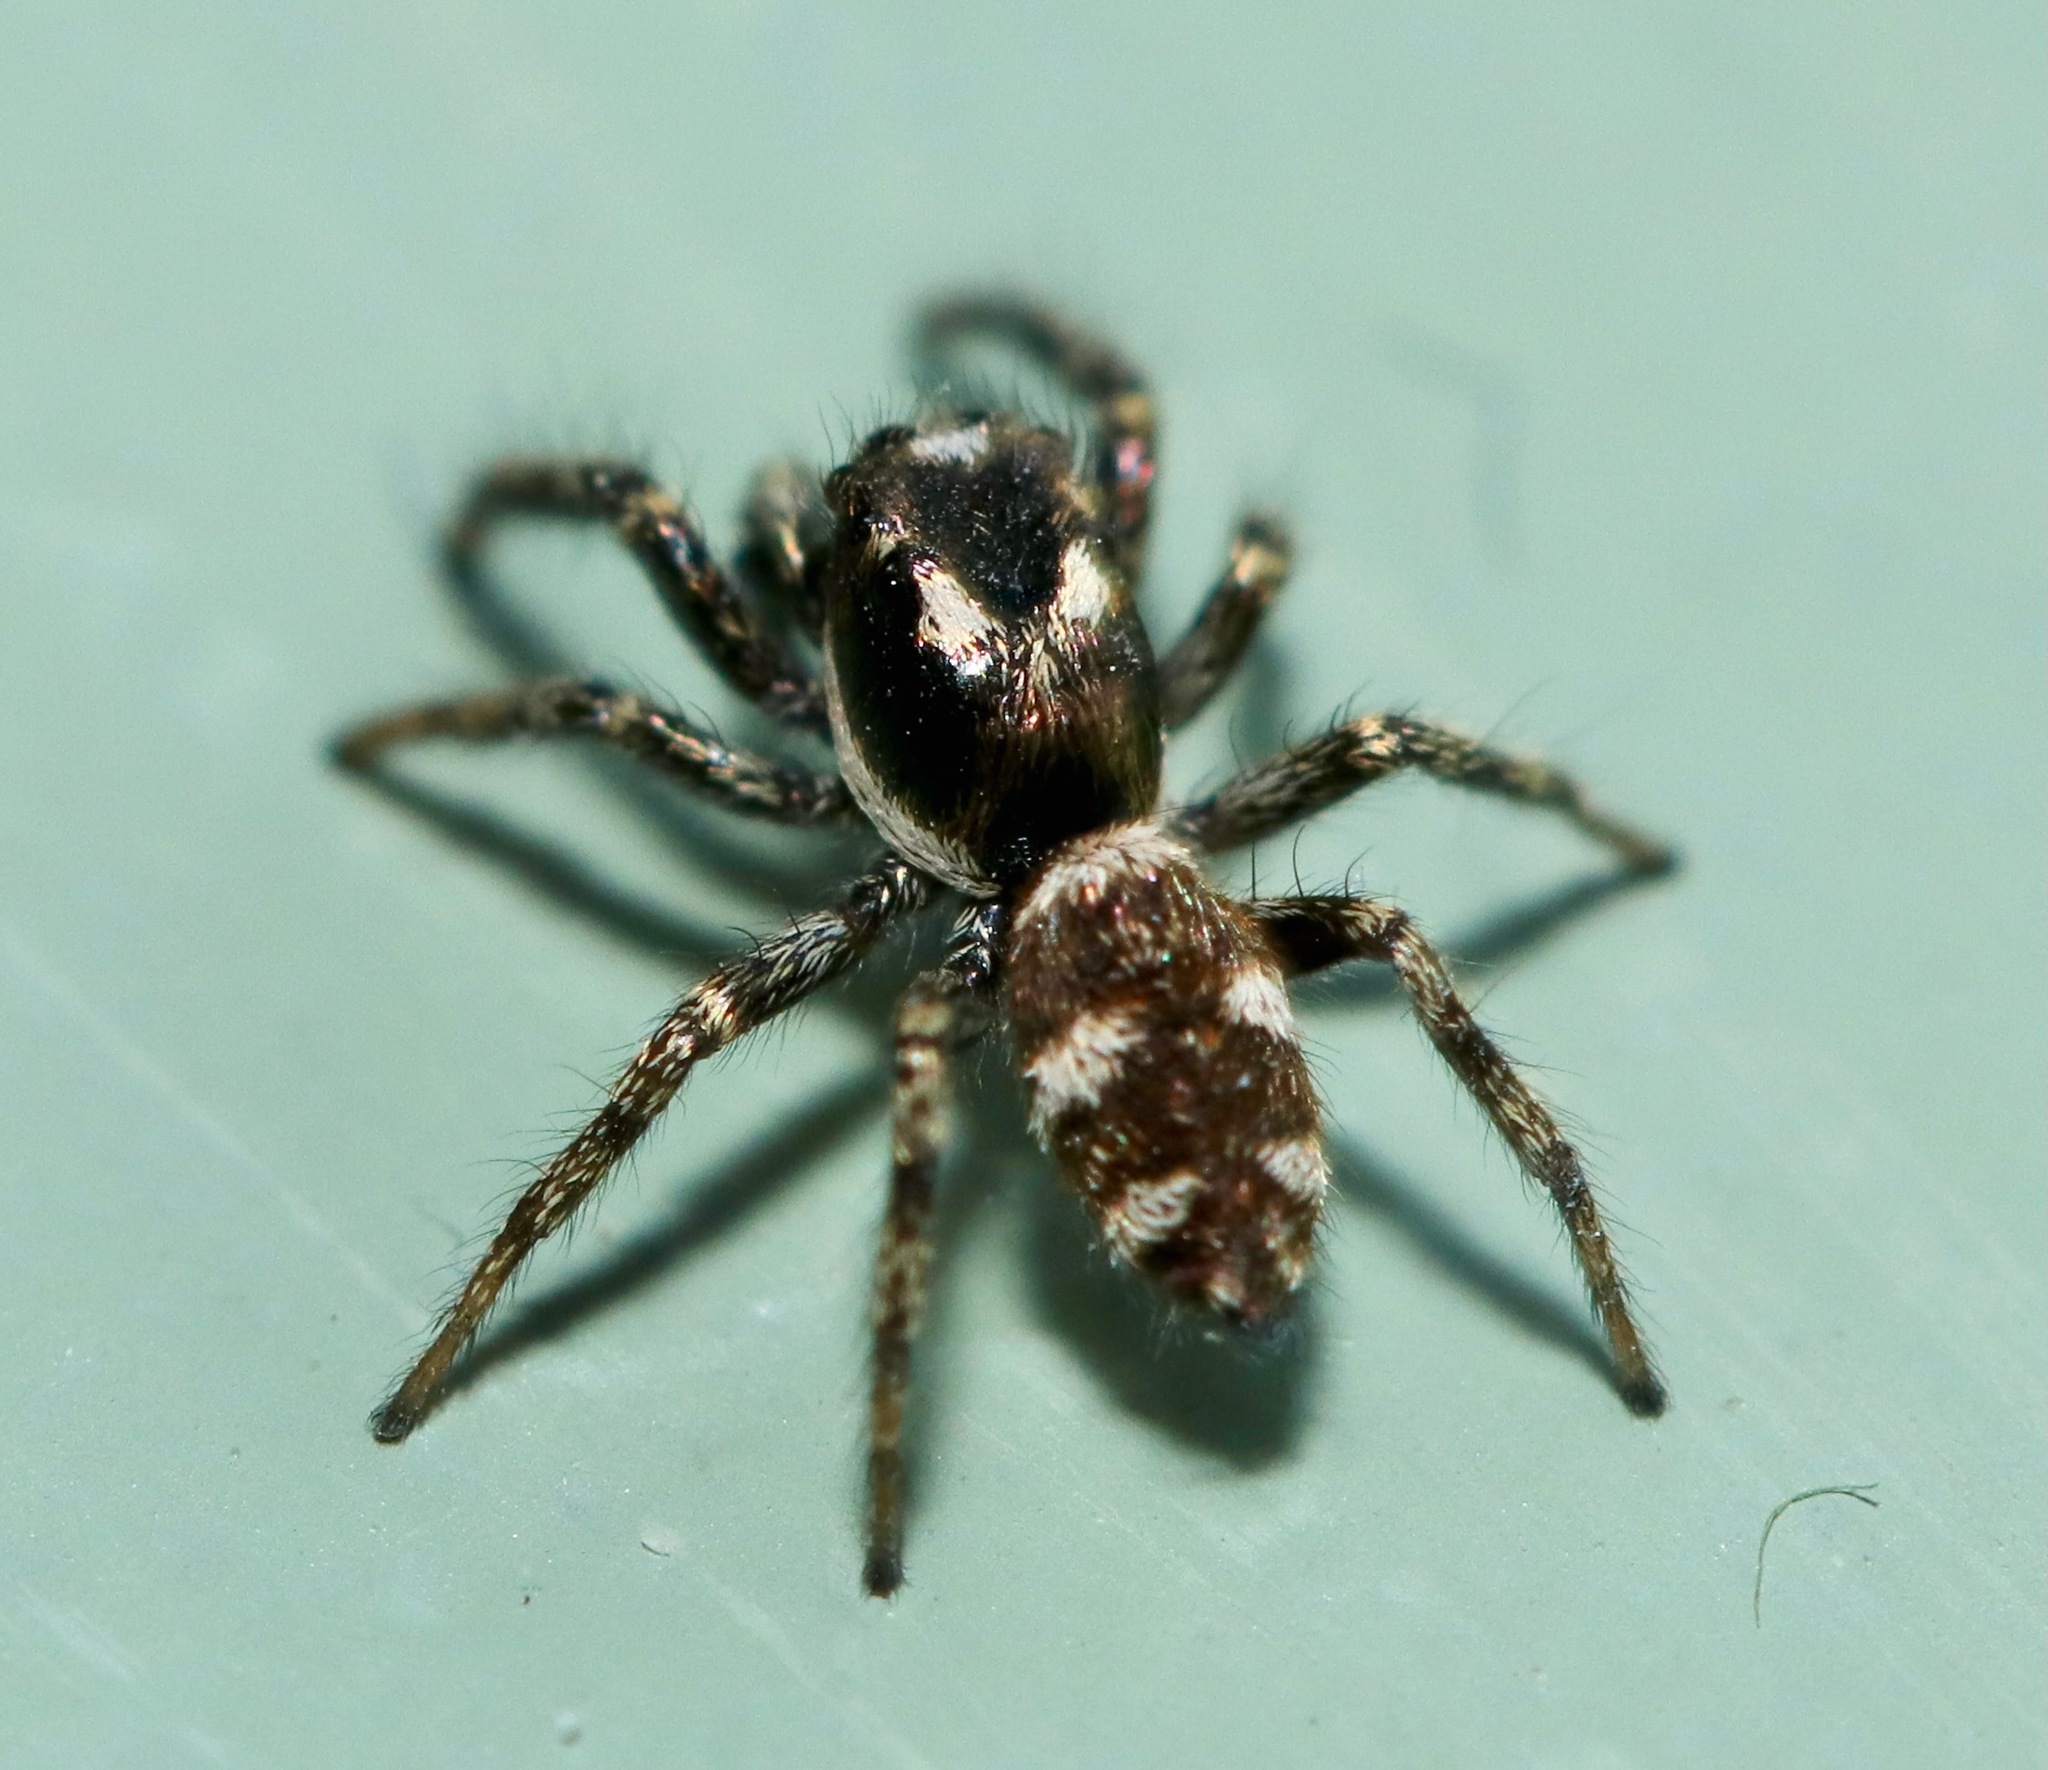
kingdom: Animalia
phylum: Arthropoda
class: Arachnida
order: Araneae
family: Salticidae
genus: Salticus
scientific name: Salticus scenicus
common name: Zebra jumper
